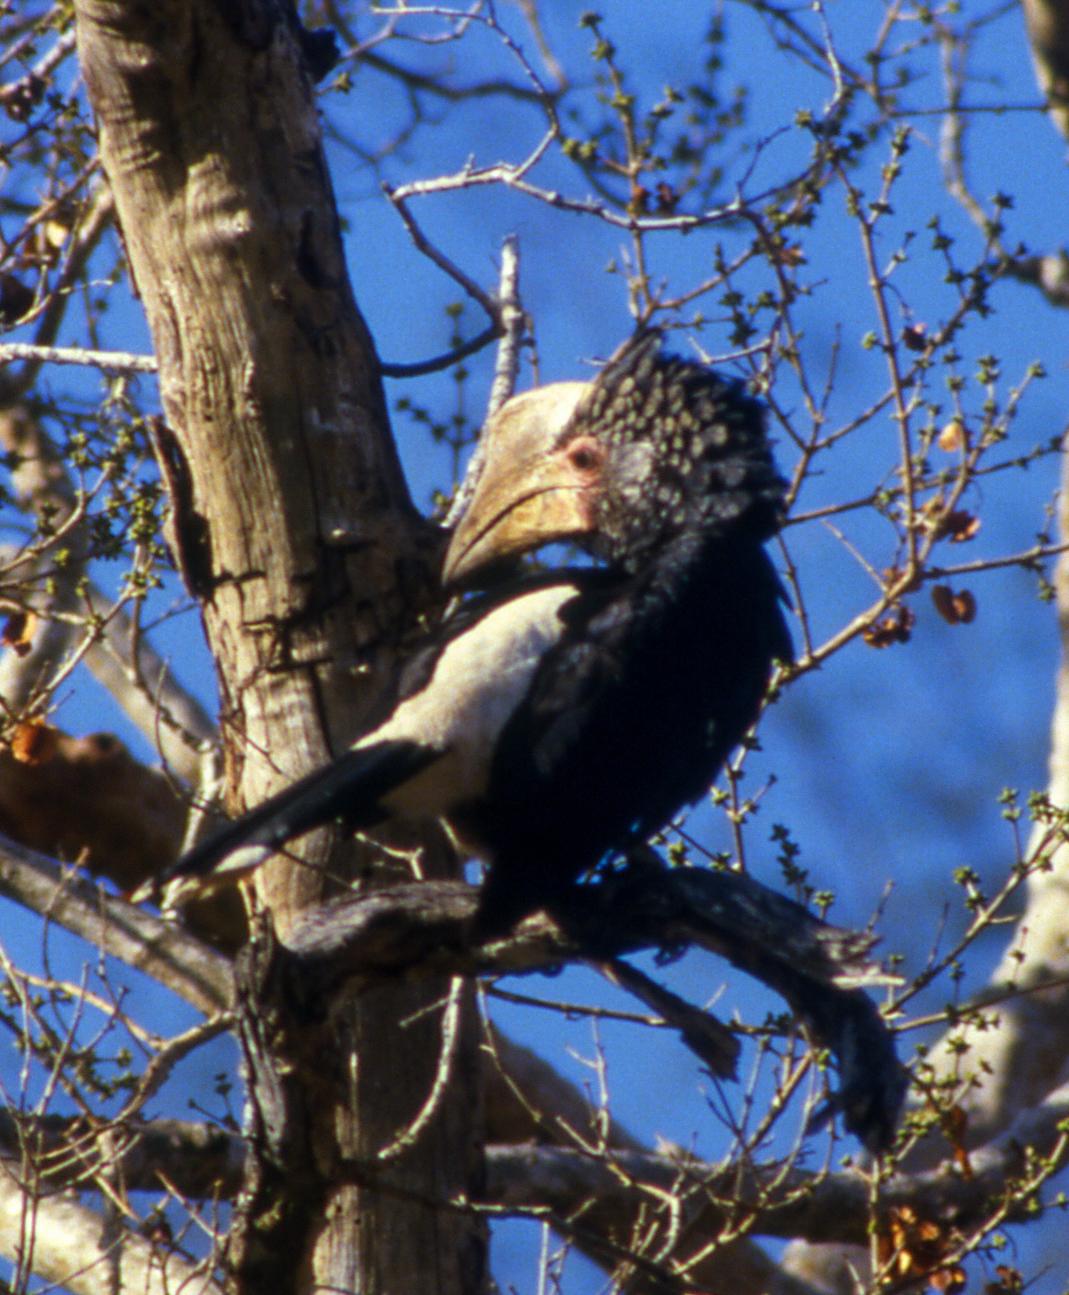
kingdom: Animalia
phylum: Chordata
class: Aves
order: Bucerotiformes
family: Bucerotidae
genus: Bycanistes
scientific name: Bycanistes brevis
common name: Silvery-cheeked hornbill
